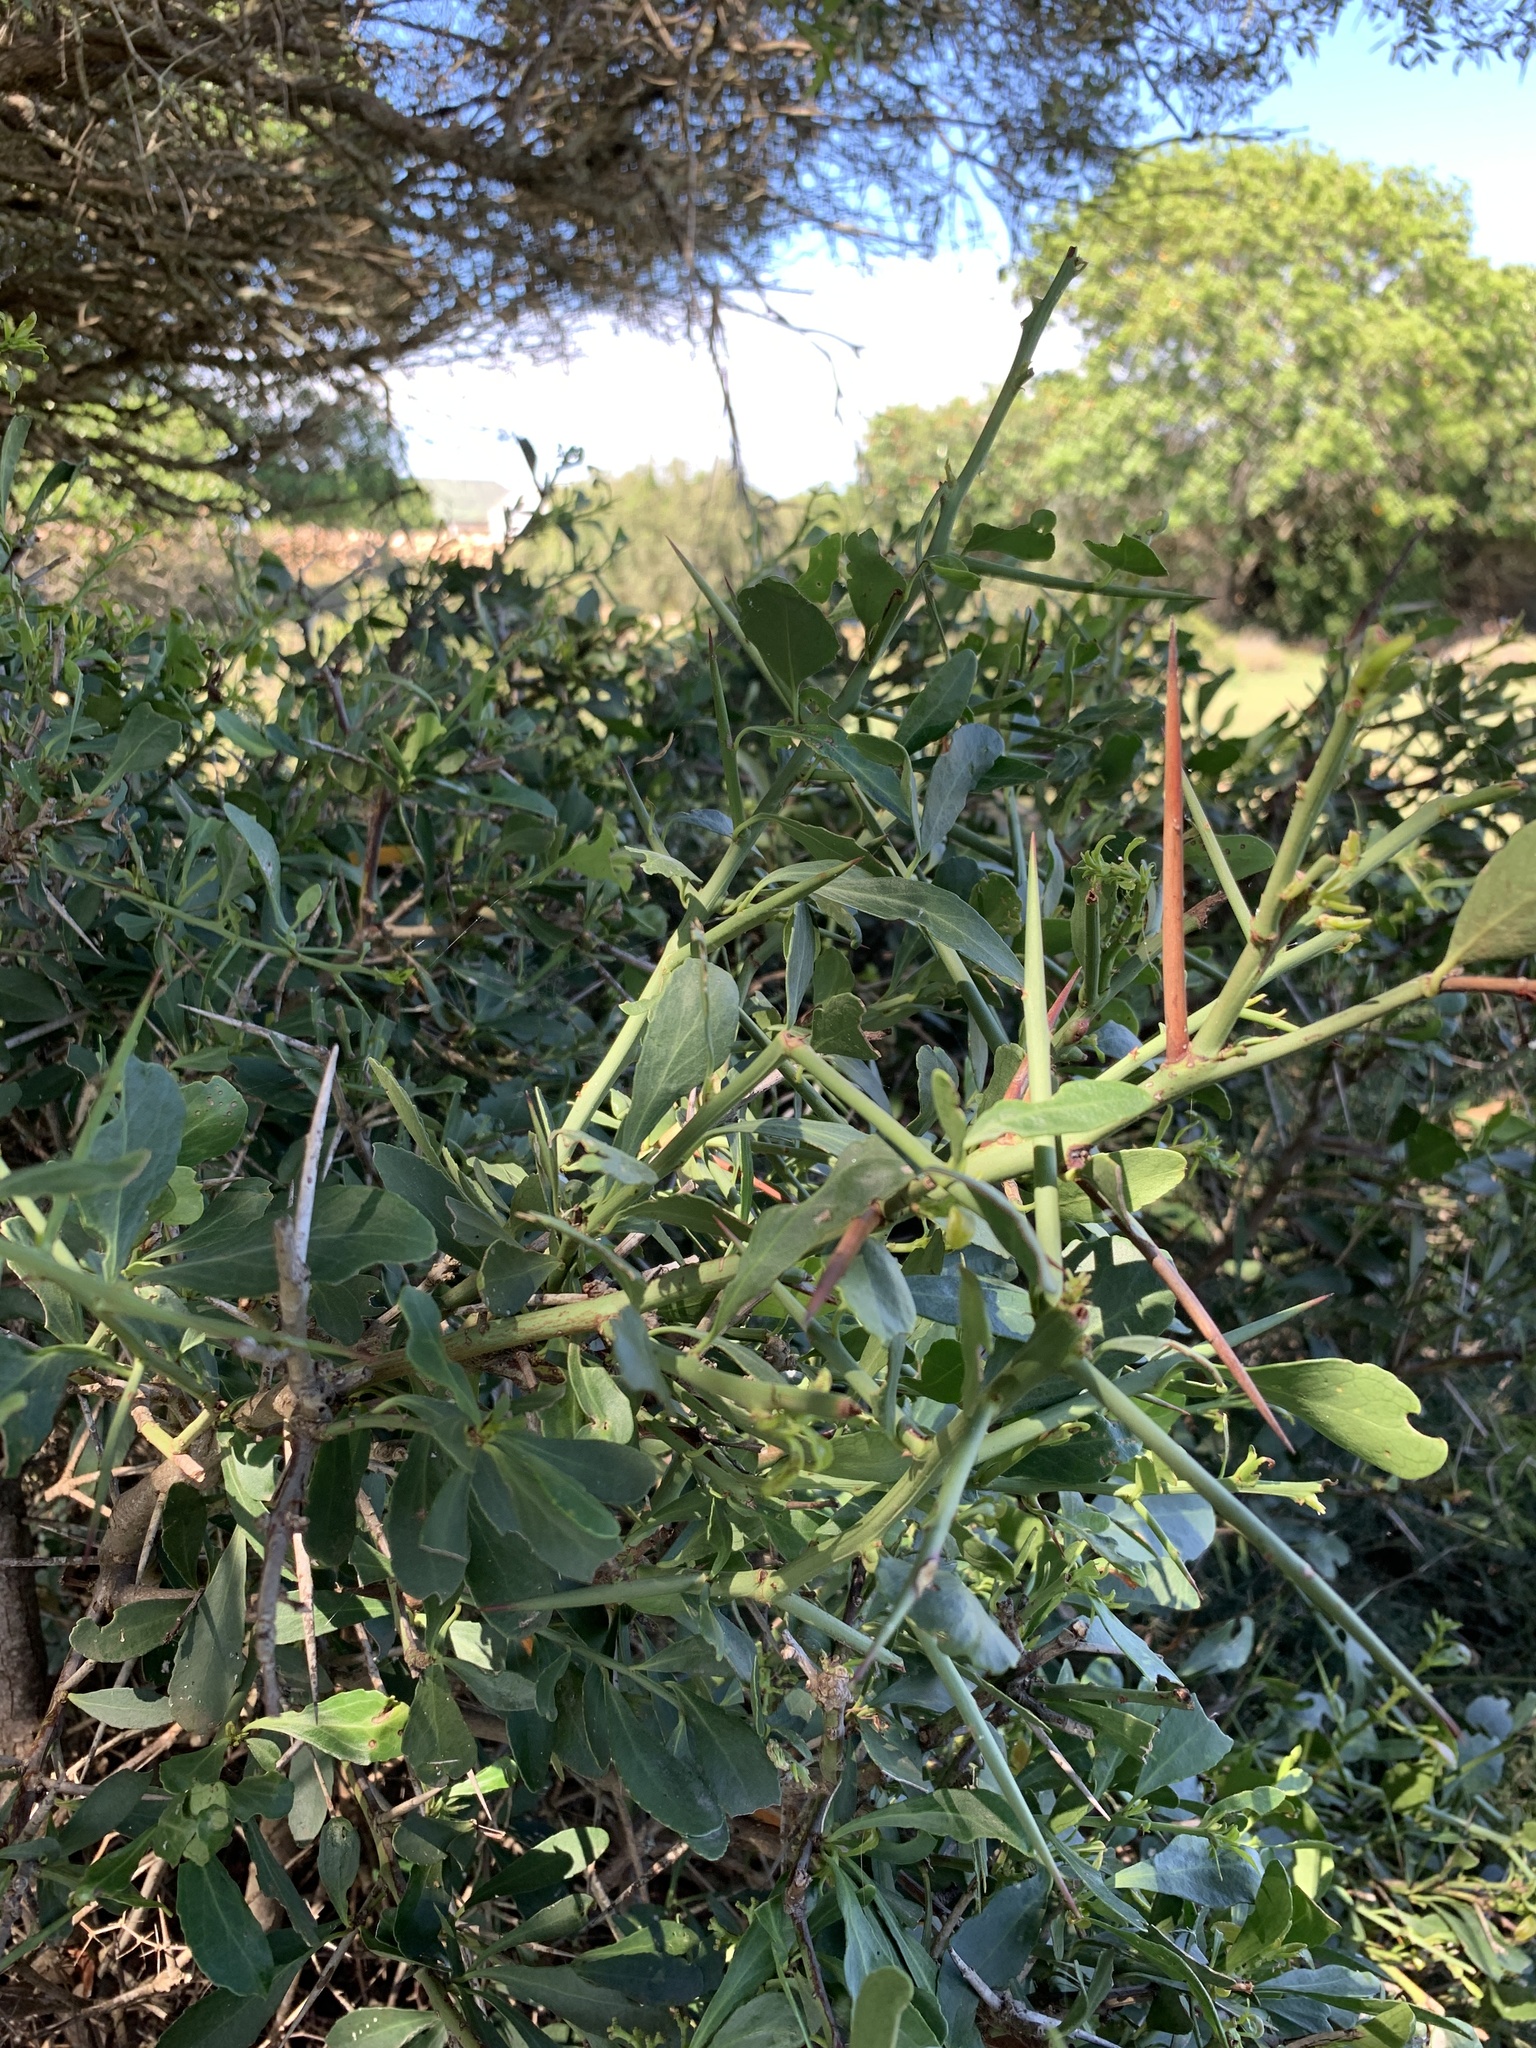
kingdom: Plantae
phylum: Tracheophyta
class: Magnoliopsida
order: Celastrales
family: Celastraceae
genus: Gymnosporia
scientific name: Gymnosporia buxifolia
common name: Common spike-thorn
